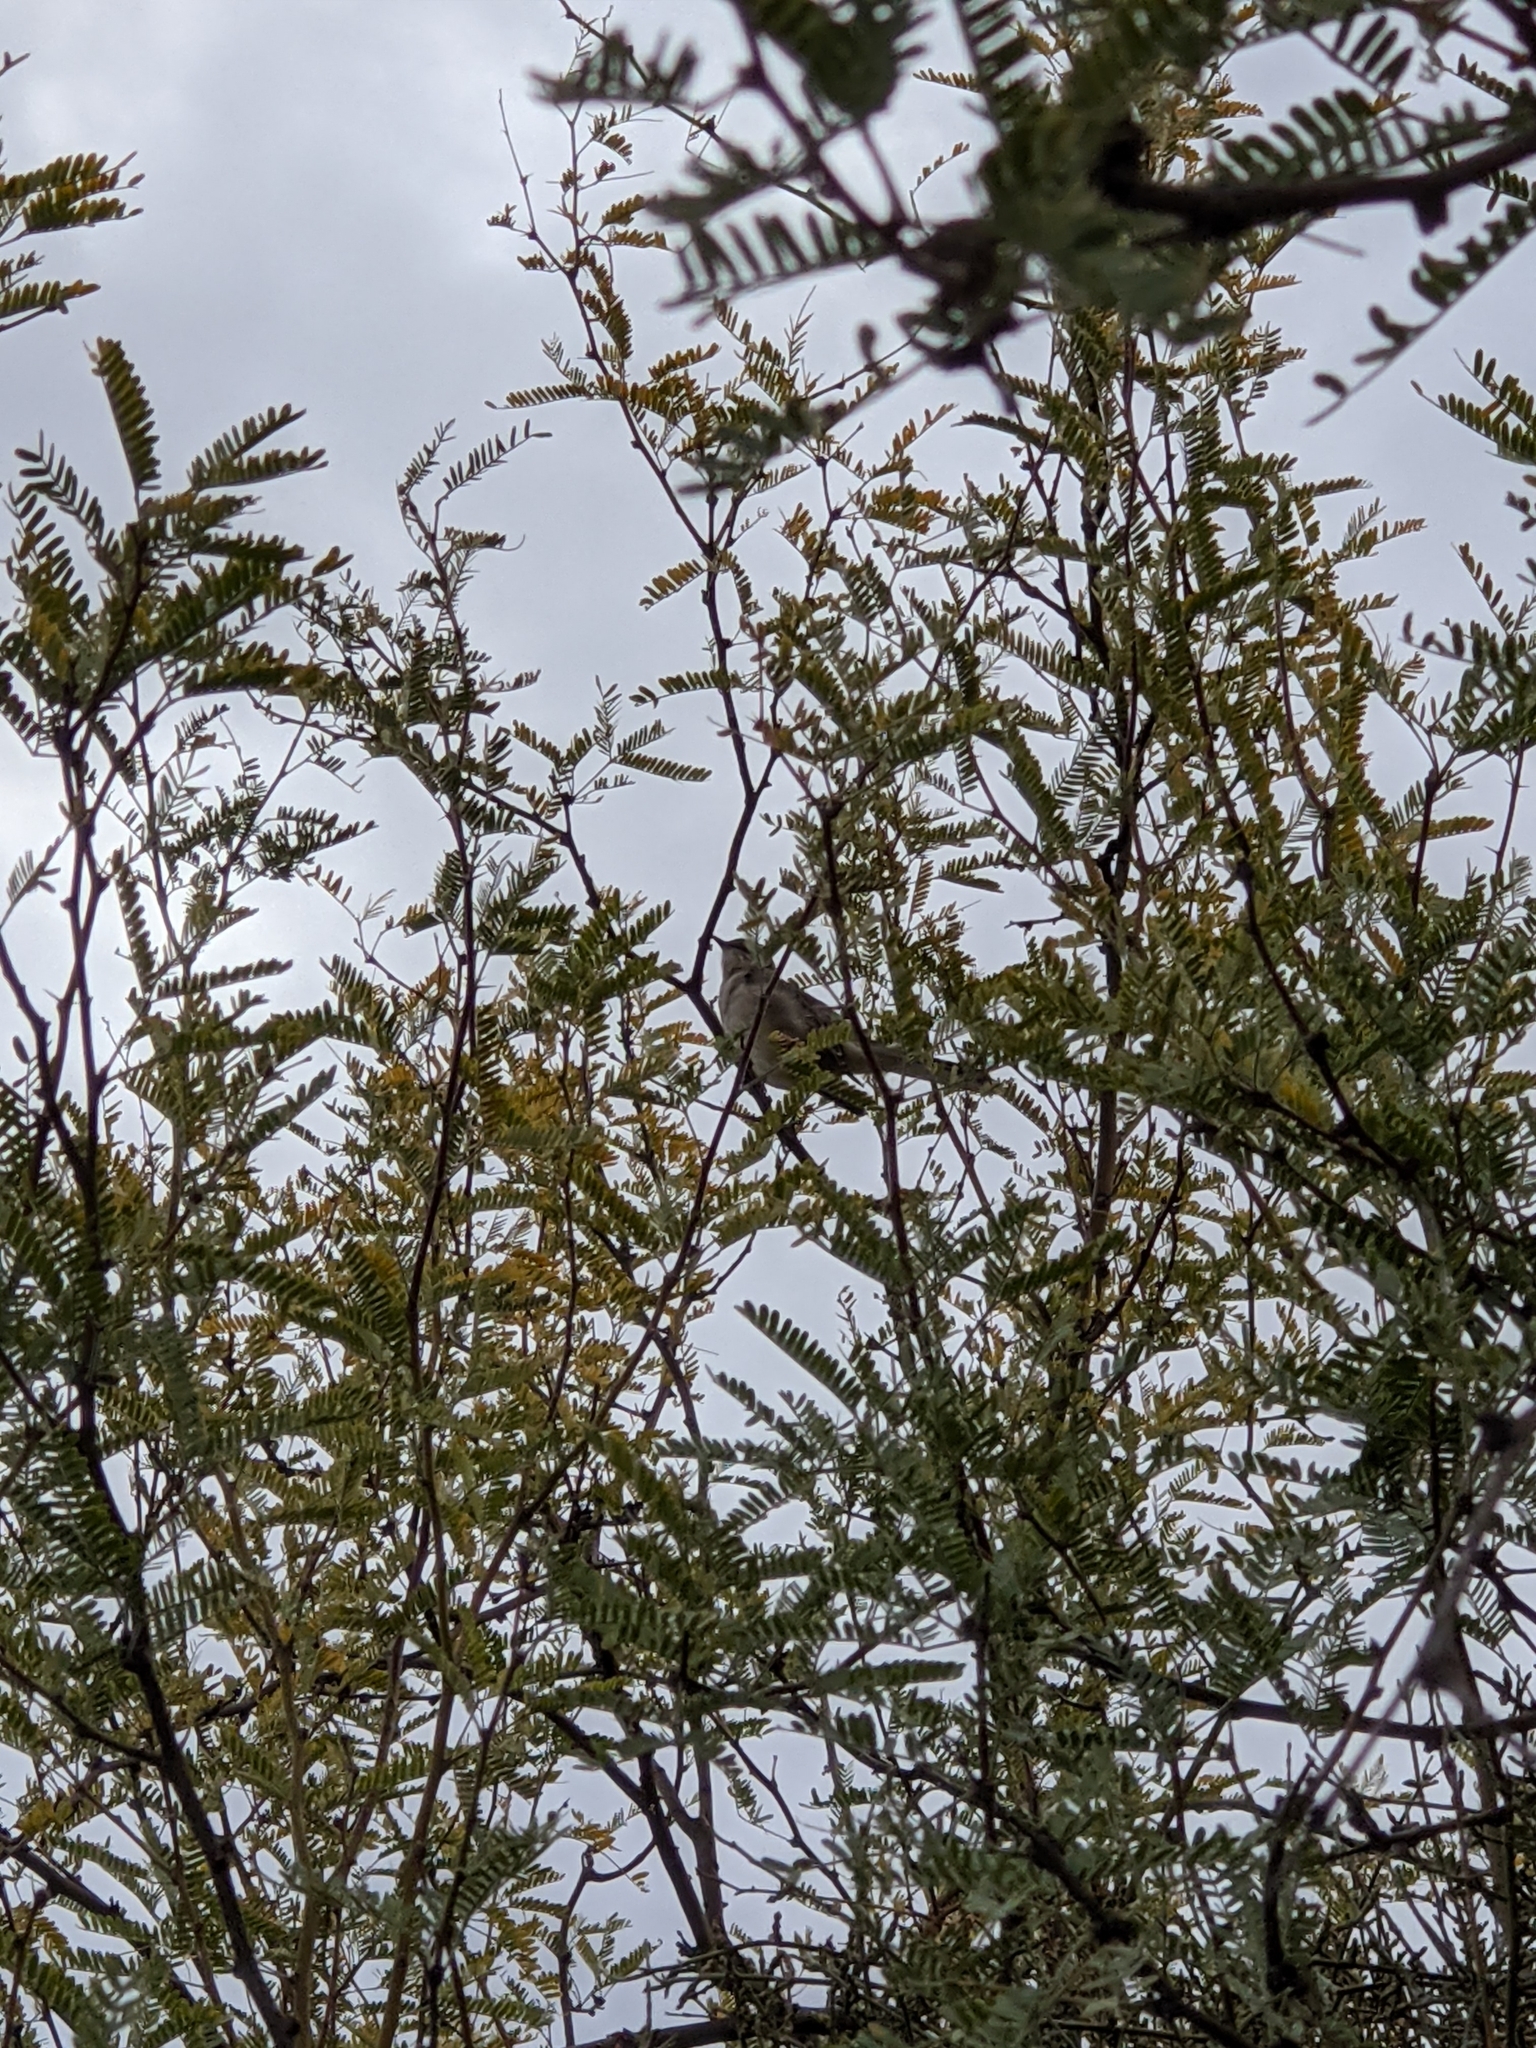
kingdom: Animalia
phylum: Chordata
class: Aves
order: Passeriformes
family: Mimidae
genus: Mimus
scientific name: Mimus polyglottos
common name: Northern mockingbird
